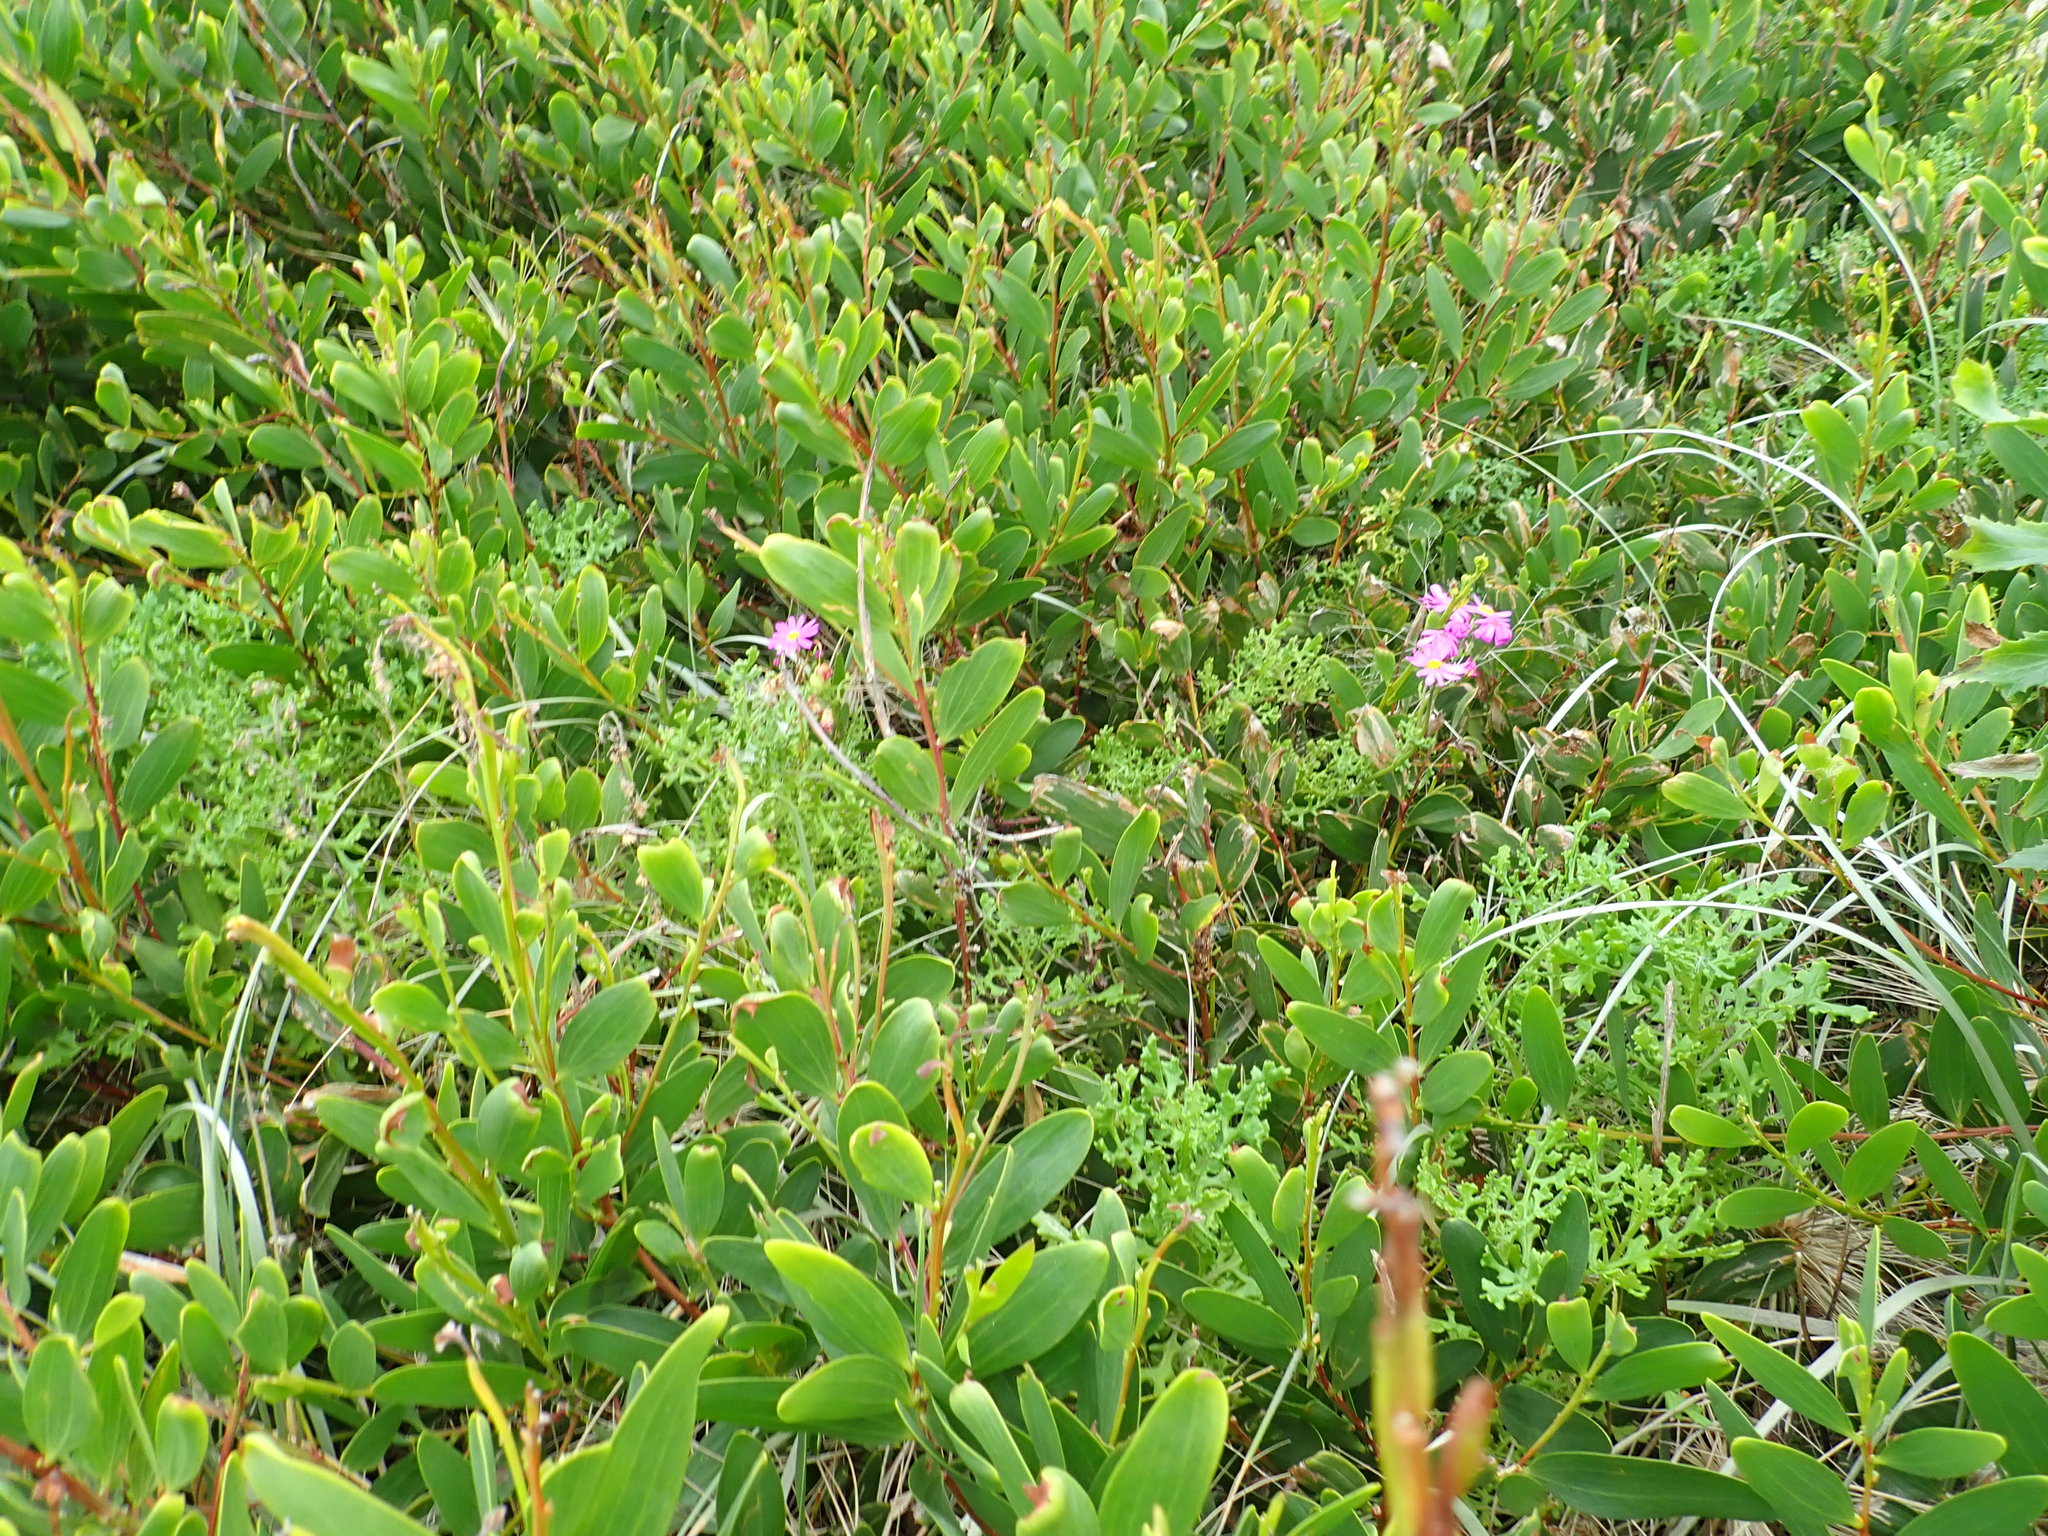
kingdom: Plantae
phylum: Tracheophyta
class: Magnoliopsida
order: Asterales
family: Asteraceae
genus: Senecio
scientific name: Senecio elegans
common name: Purple groundsel
